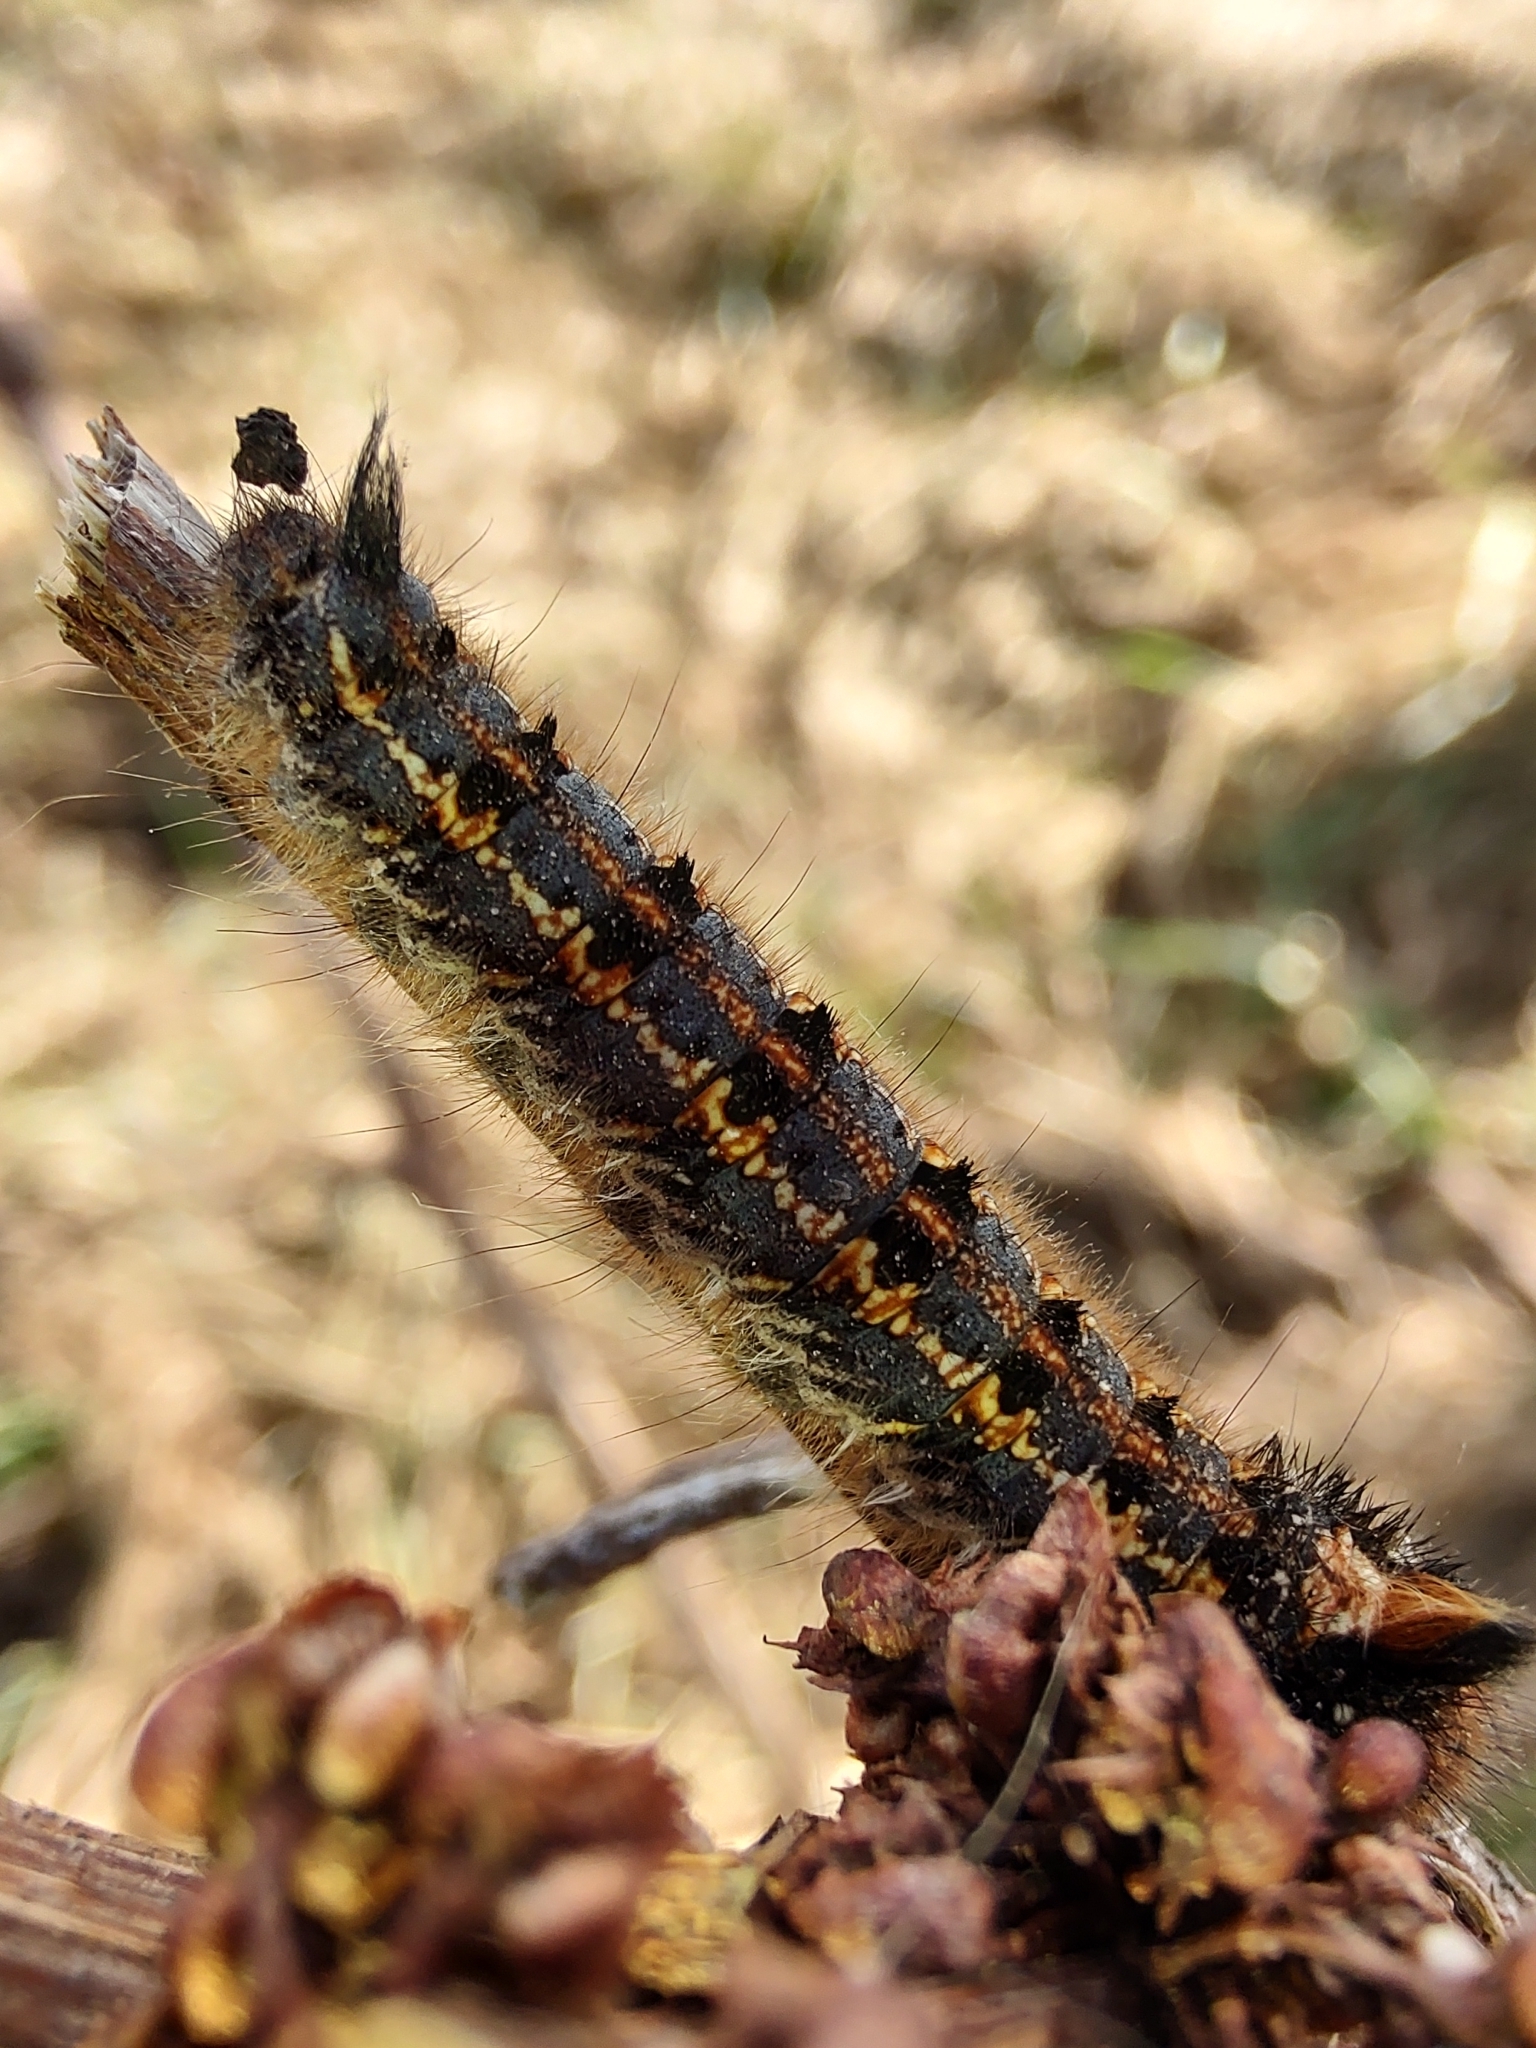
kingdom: Animalia
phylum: Arthropoda
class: Insecta
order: Lepidoptera
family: Lasiocampidae
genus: Euthrix
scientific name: Euthrix potatoria
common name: Drinker
